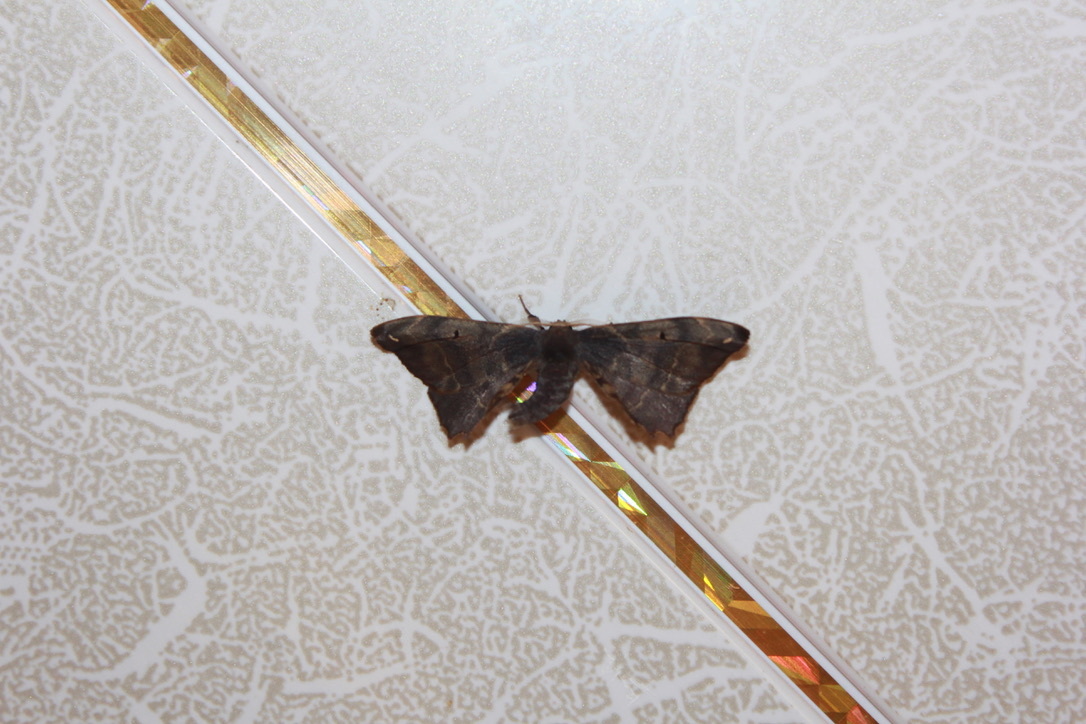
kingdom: Animalia
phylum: Arthropoda
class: Insecta
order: Lepidoptera
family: Phiditiidae
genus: Phiditia
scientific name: Phiditia cuprea
